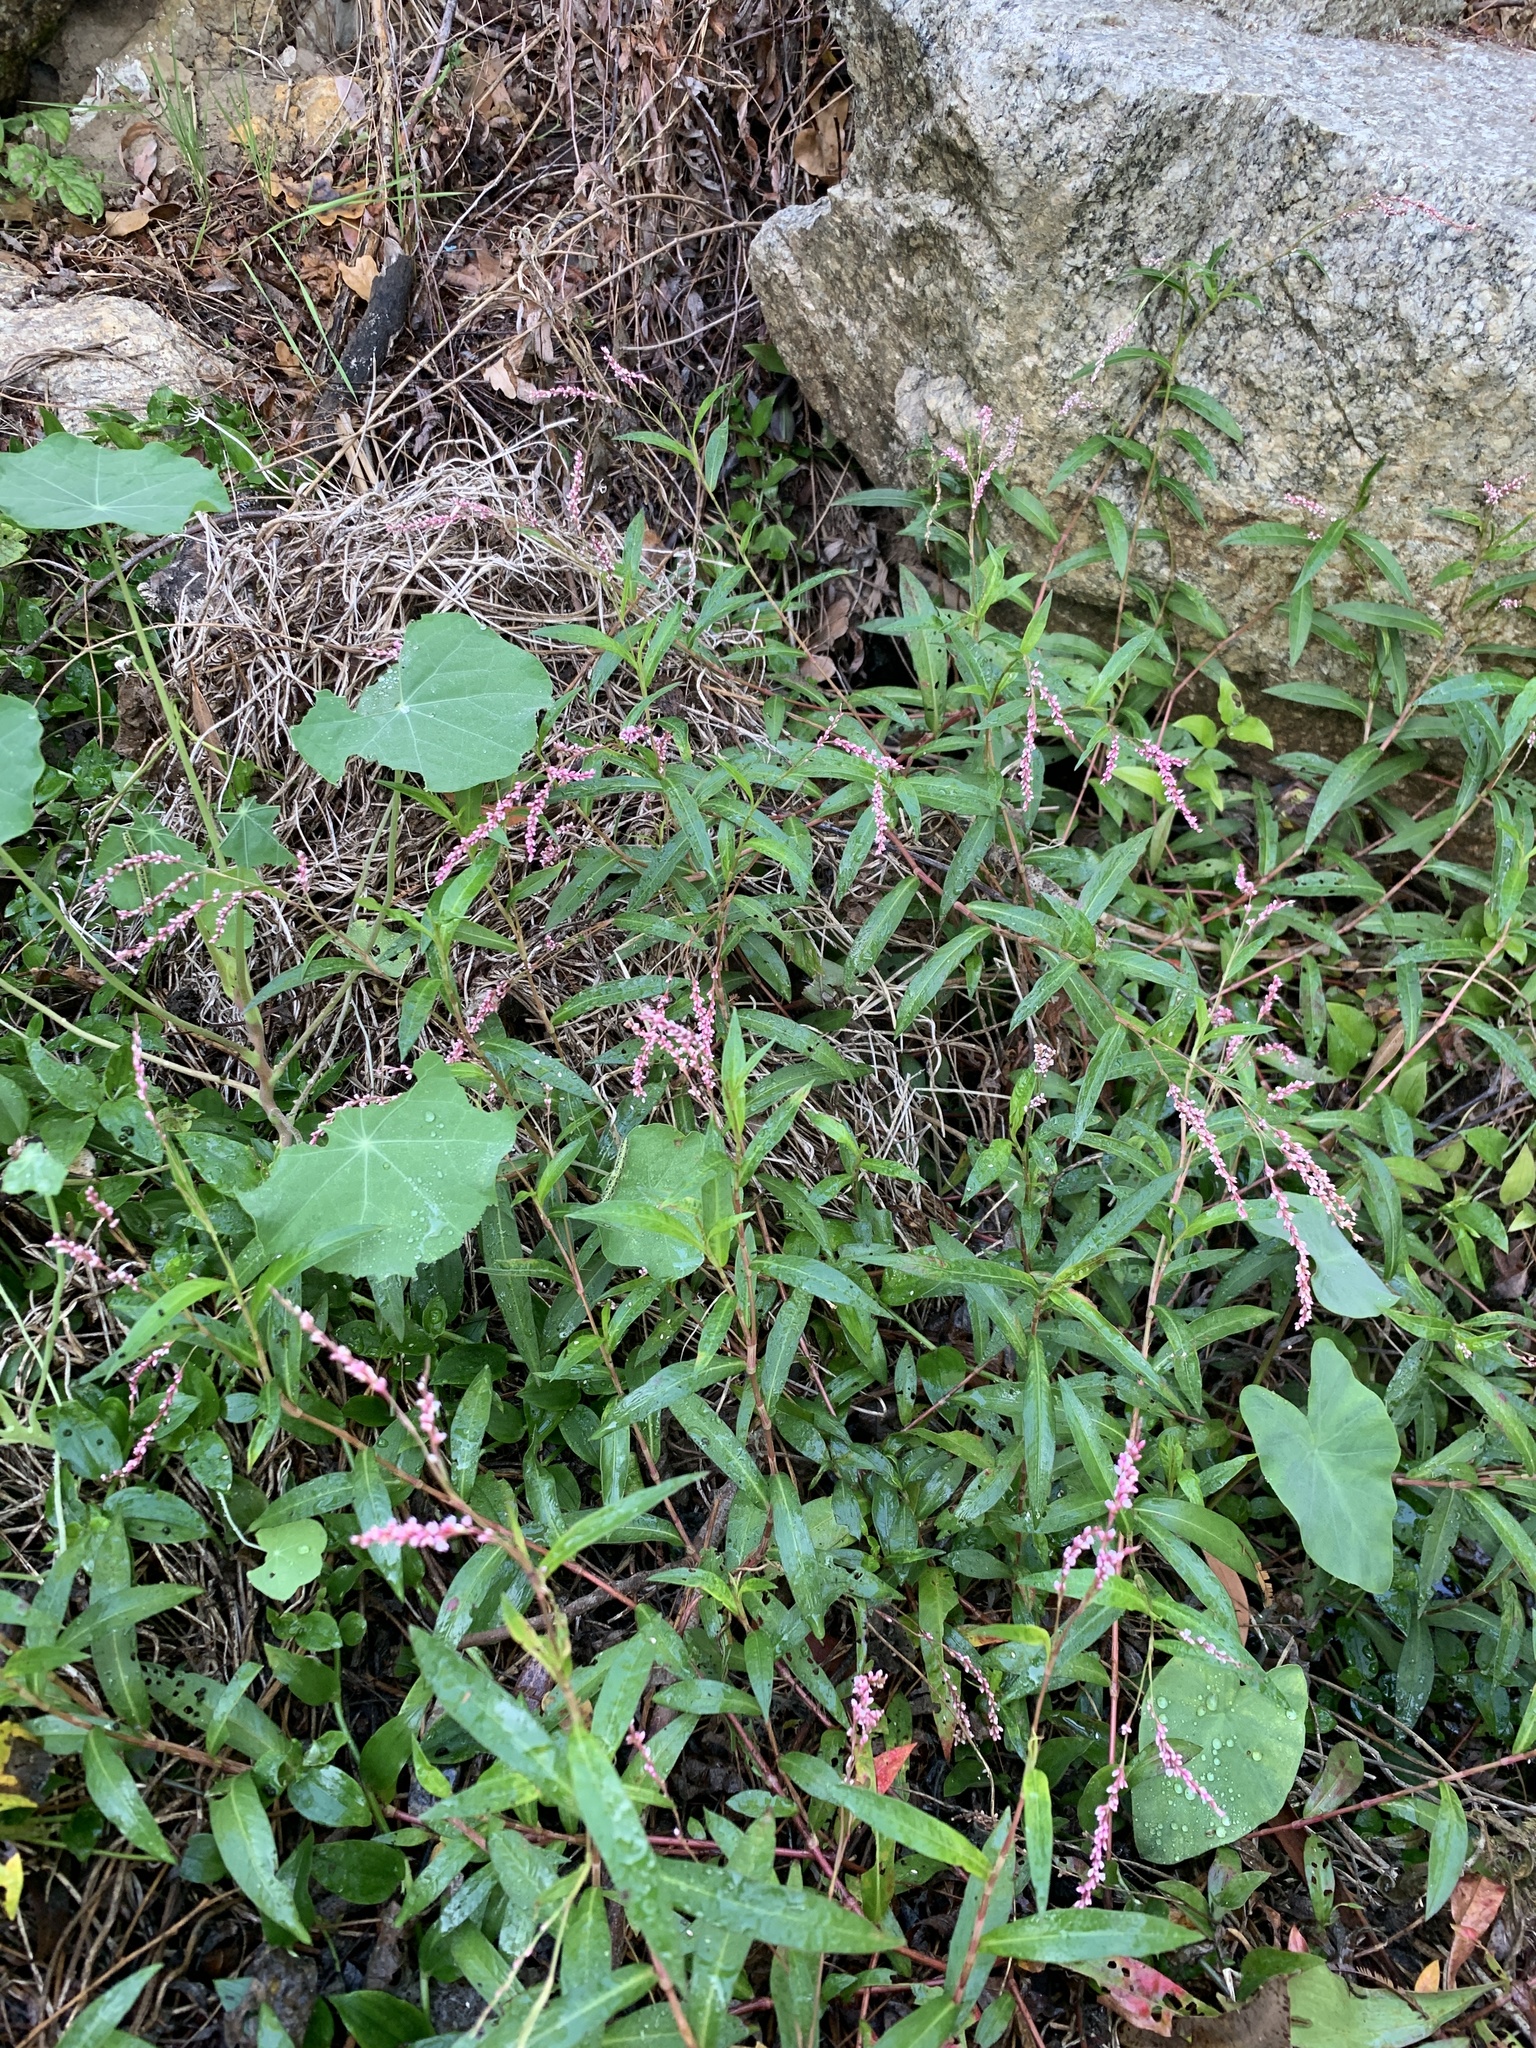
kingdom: Plantae
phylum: Tracheophyta
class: Magnoliopsida
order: Caryophyllales
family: Polygonaceae
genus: Persicaria
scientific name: Persicaria decipiens
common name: Willow-weed
